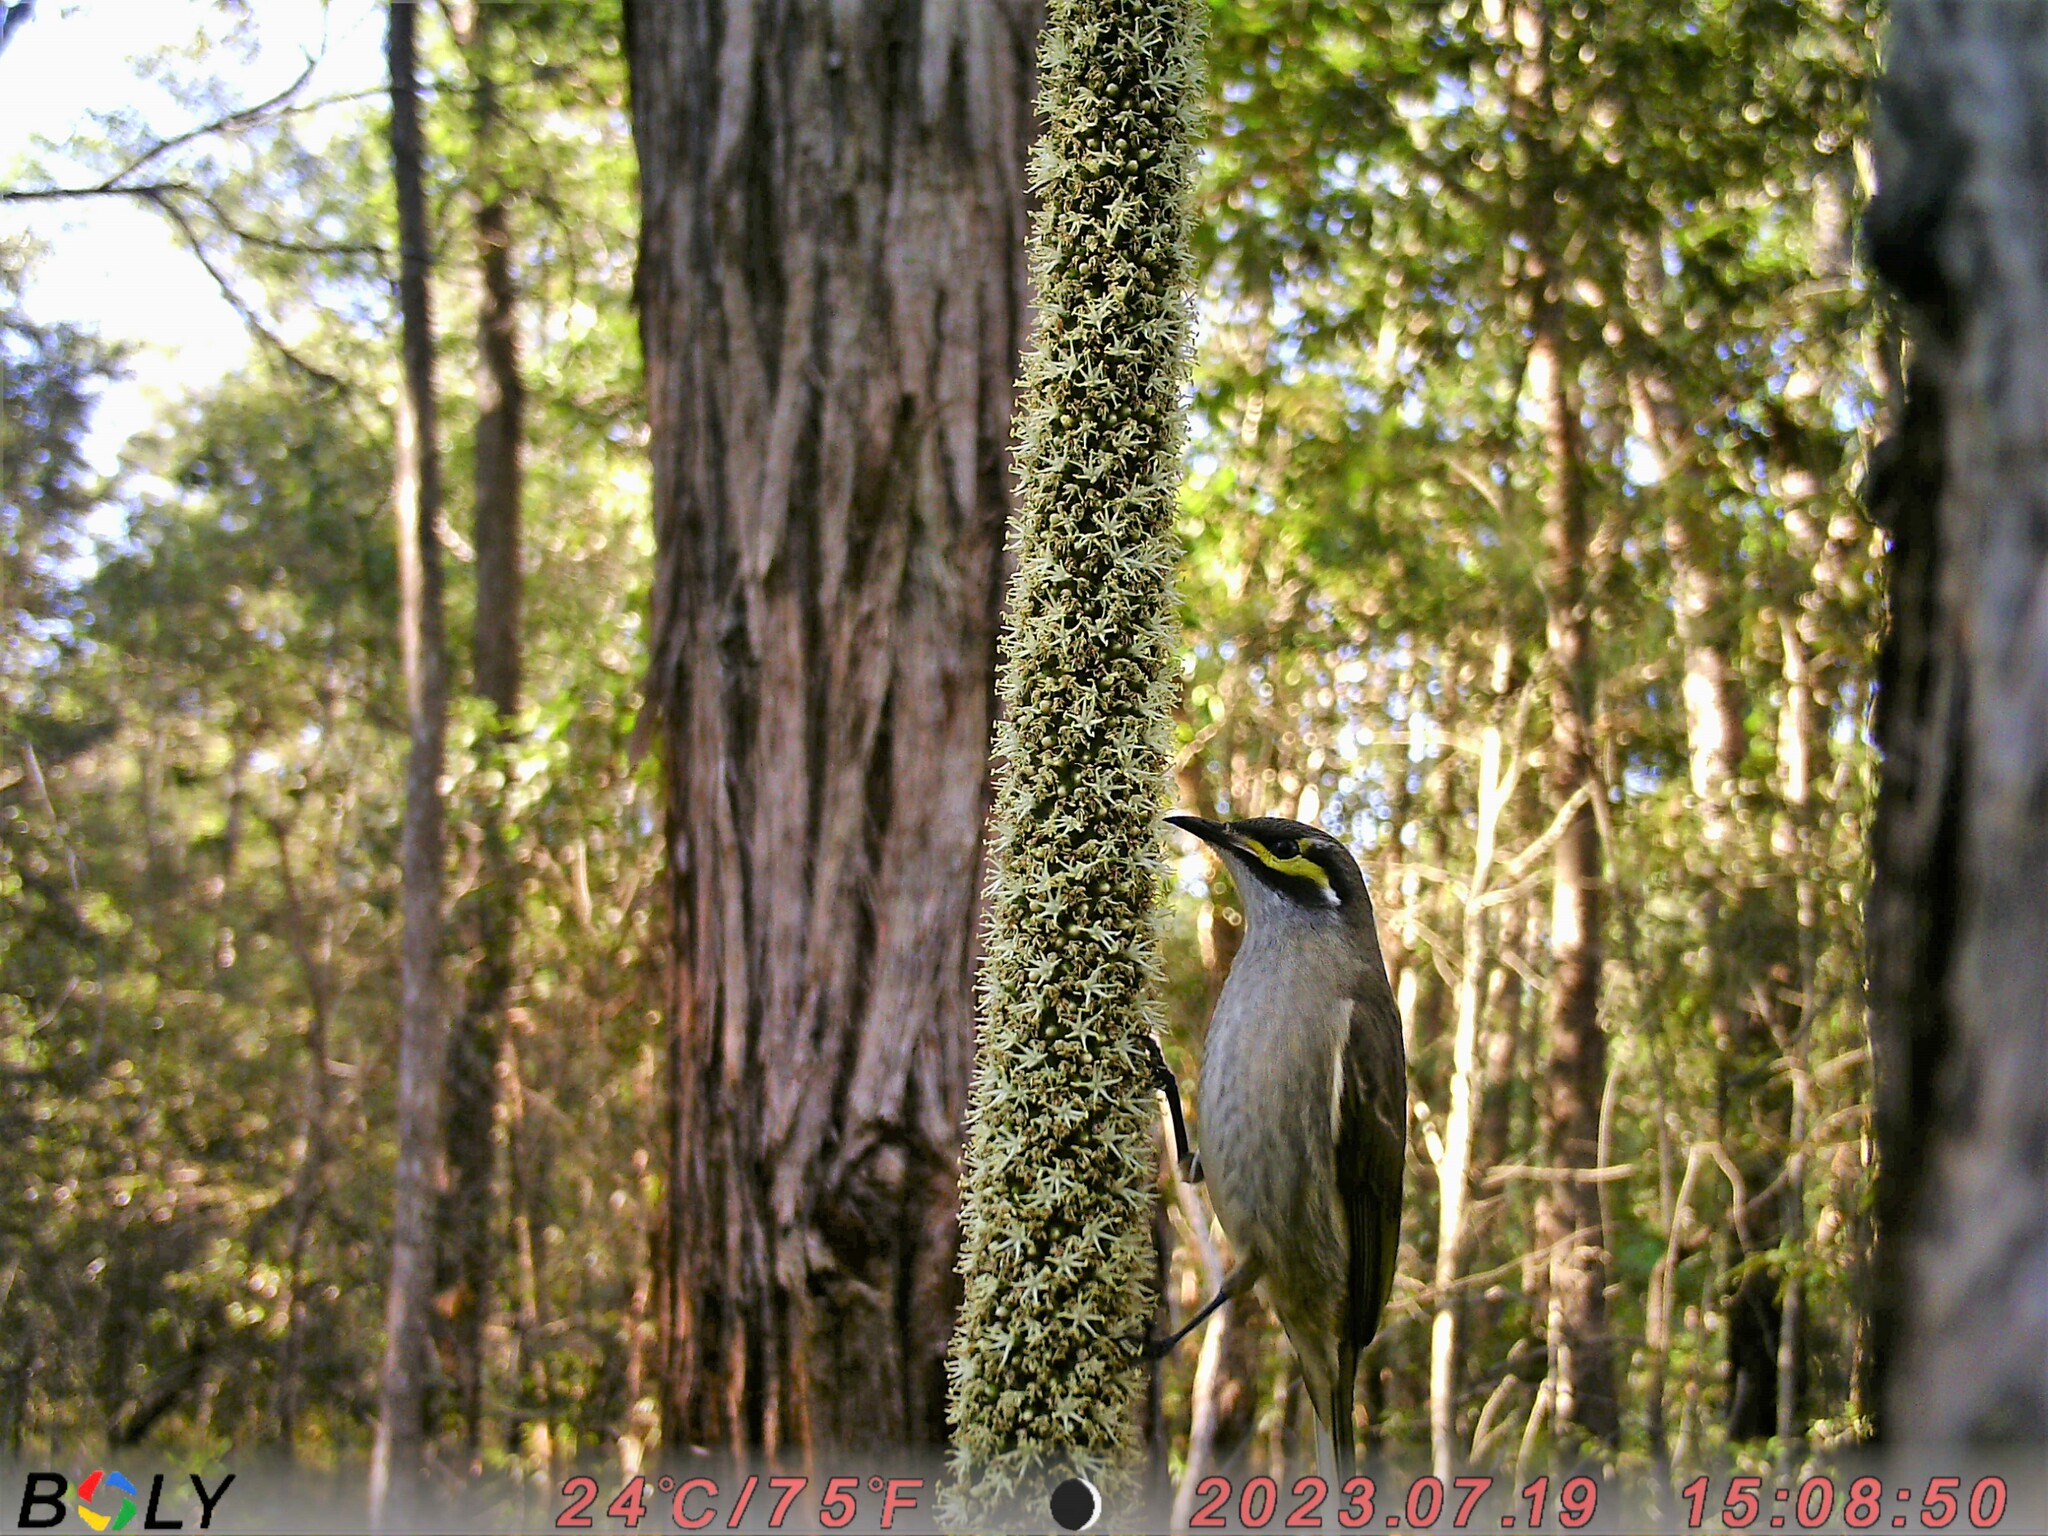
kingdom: Animalia
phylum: Chordata
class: Aves
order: Passeriformes
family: Meliphagidae
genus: Caligavis
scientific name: Caligavis chrysops
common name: Yellow-faced honeyeater
